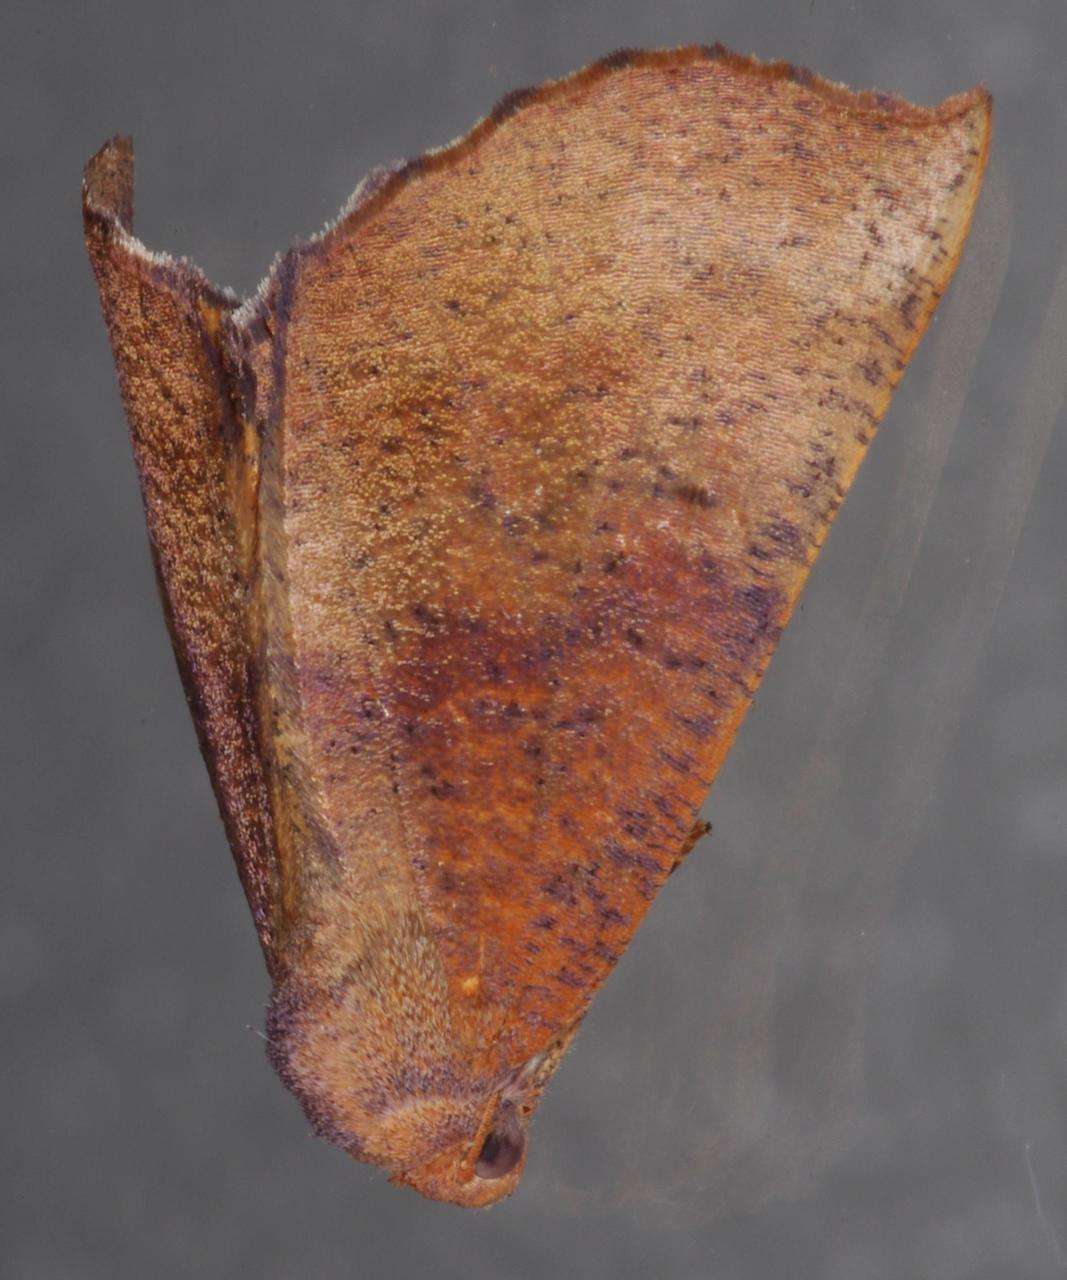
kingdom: Animalia
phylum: Arthropoda
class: Insecta
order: Lepidoptera
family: Geometridae
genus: Mnesampela
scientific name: Mnesampela privata
